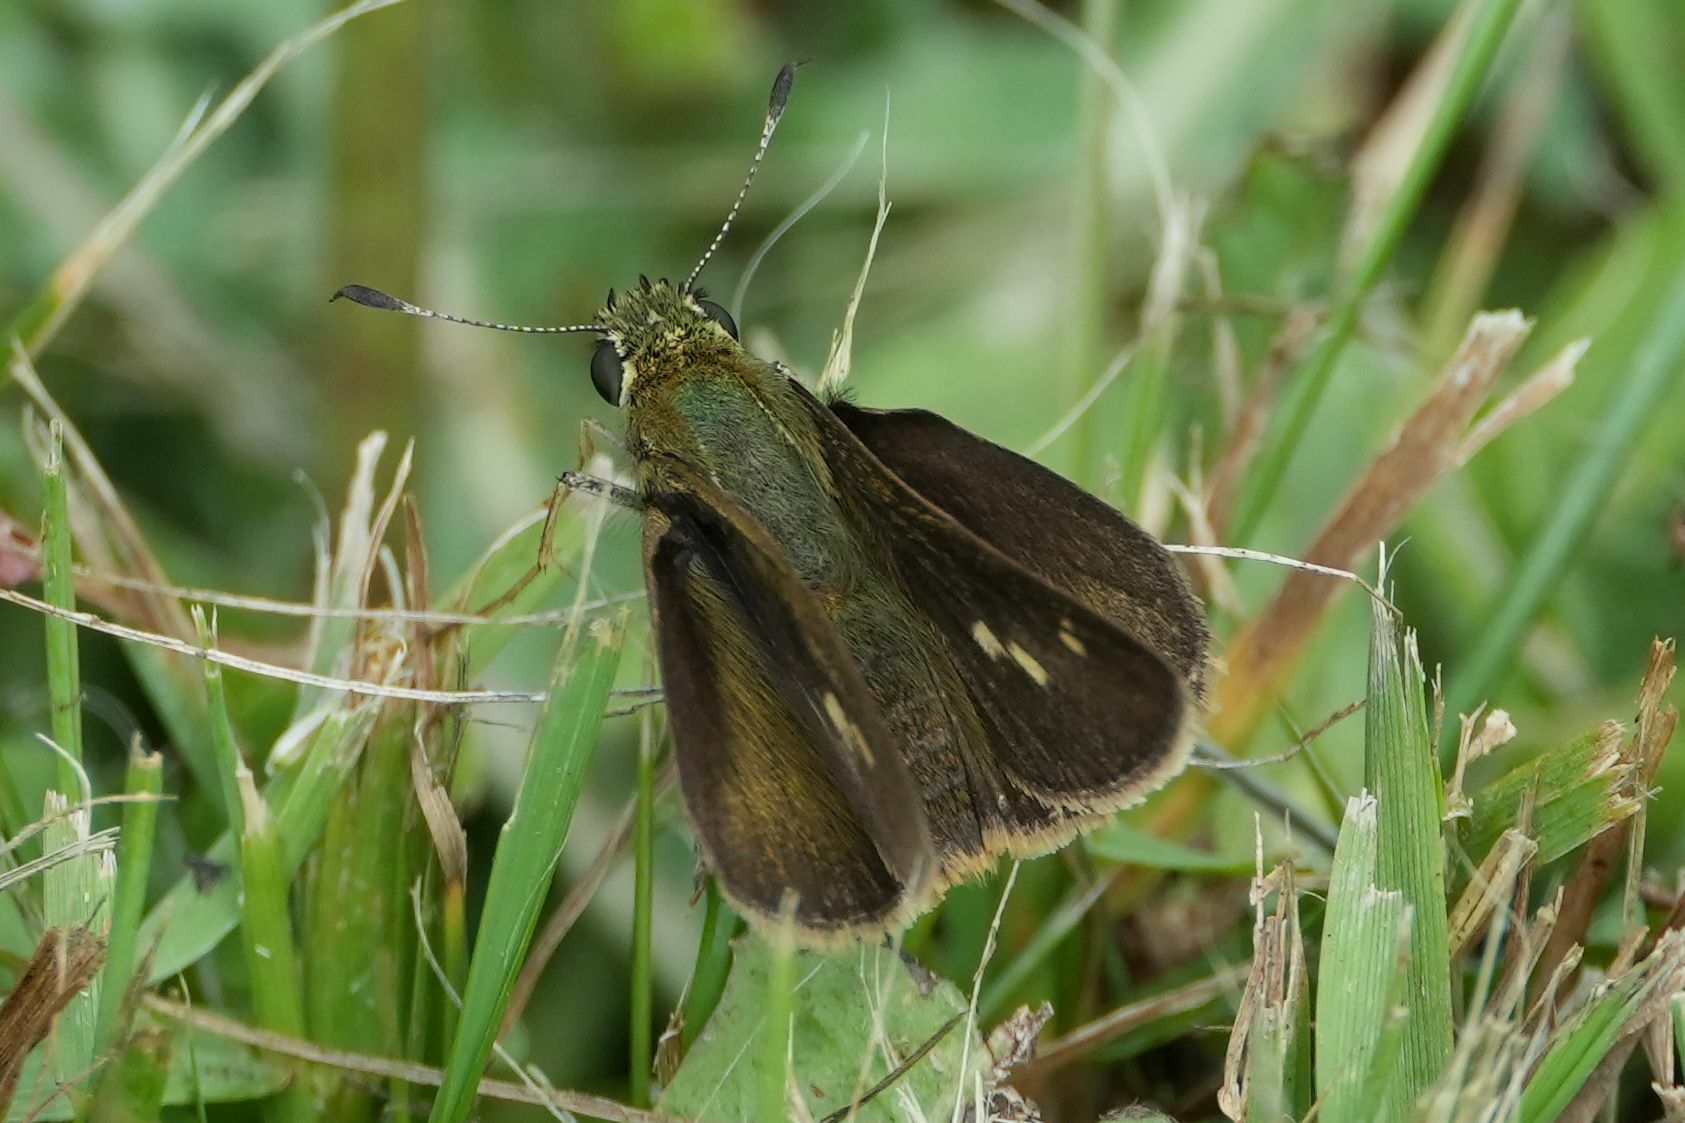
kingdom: Animalia
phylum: Arthropoda
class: Insecta
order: Lepidoptera
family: Hesperiidae
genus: Polites
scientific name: Polites egeremet
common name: Northern broken-dash
